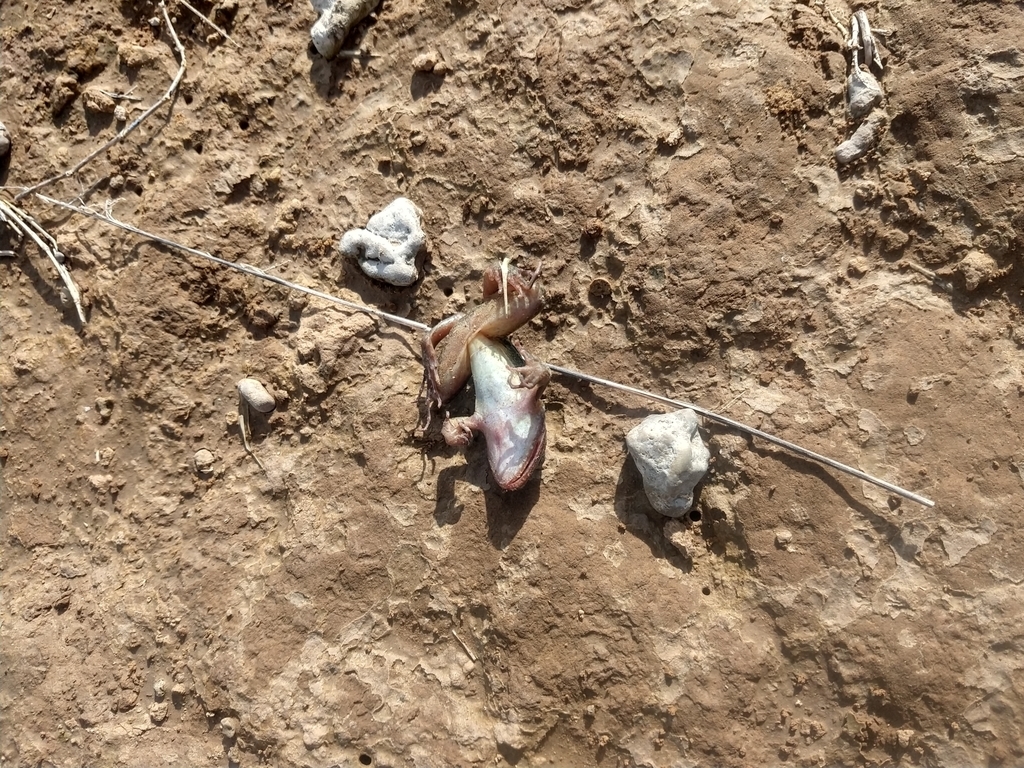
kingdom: Animalia
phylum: Chordata
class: Amphibia
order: Anura
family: Leptodactylidae
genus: Leptodactylus
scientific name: Leptodactylus luctator
